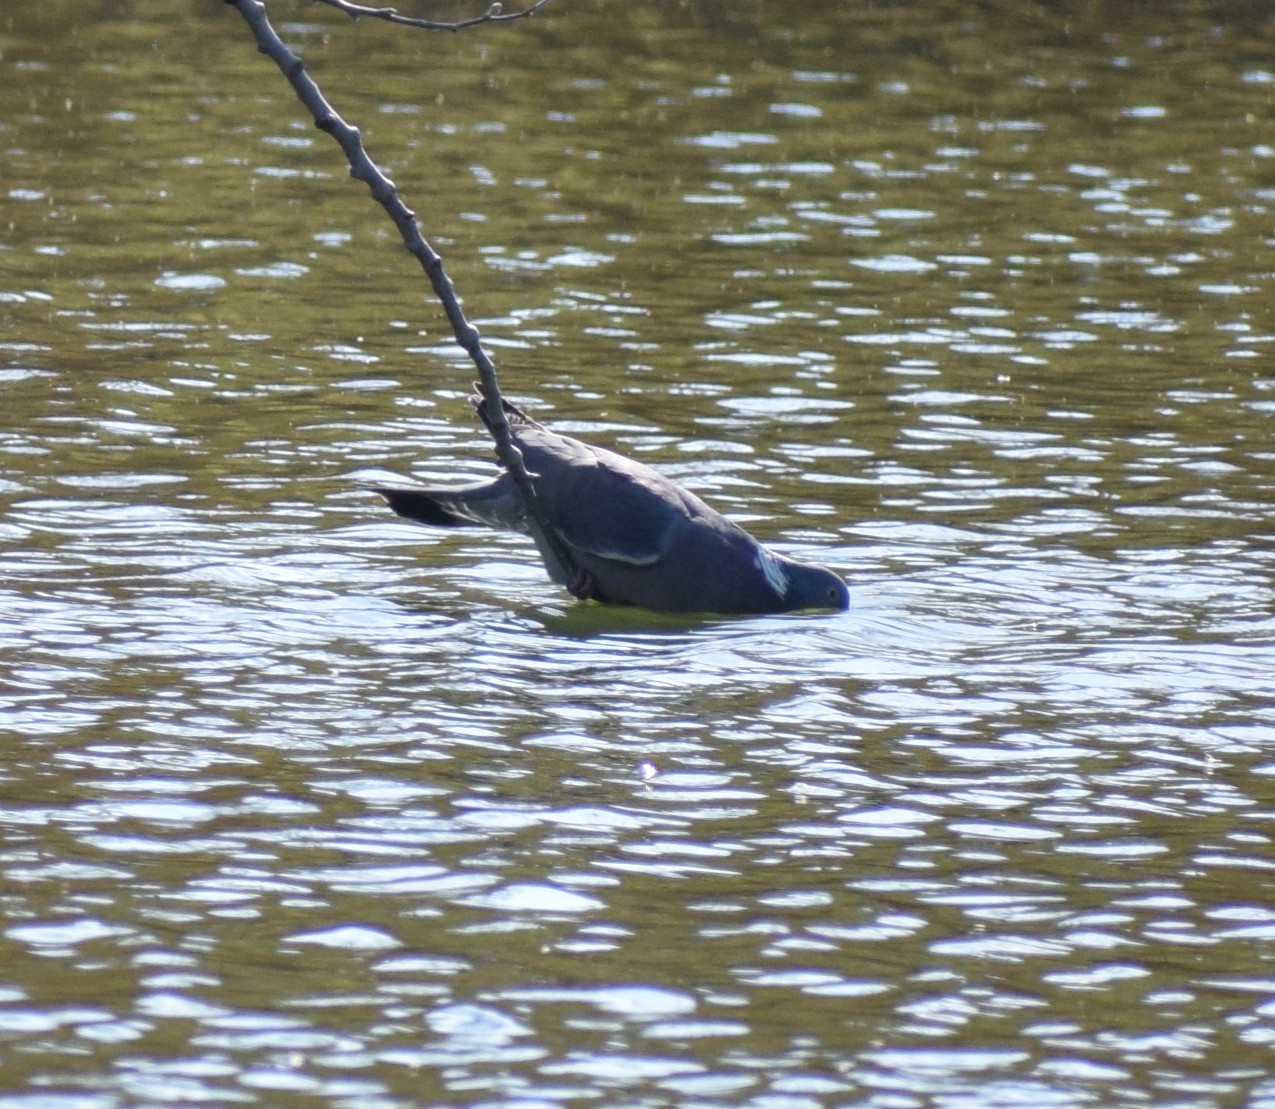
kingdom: Animalia
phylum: Chordata
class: Aves
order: Columbiformes
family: Columbidae
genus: Columba
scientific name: Columba palumbus
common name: Common wood pigeon
